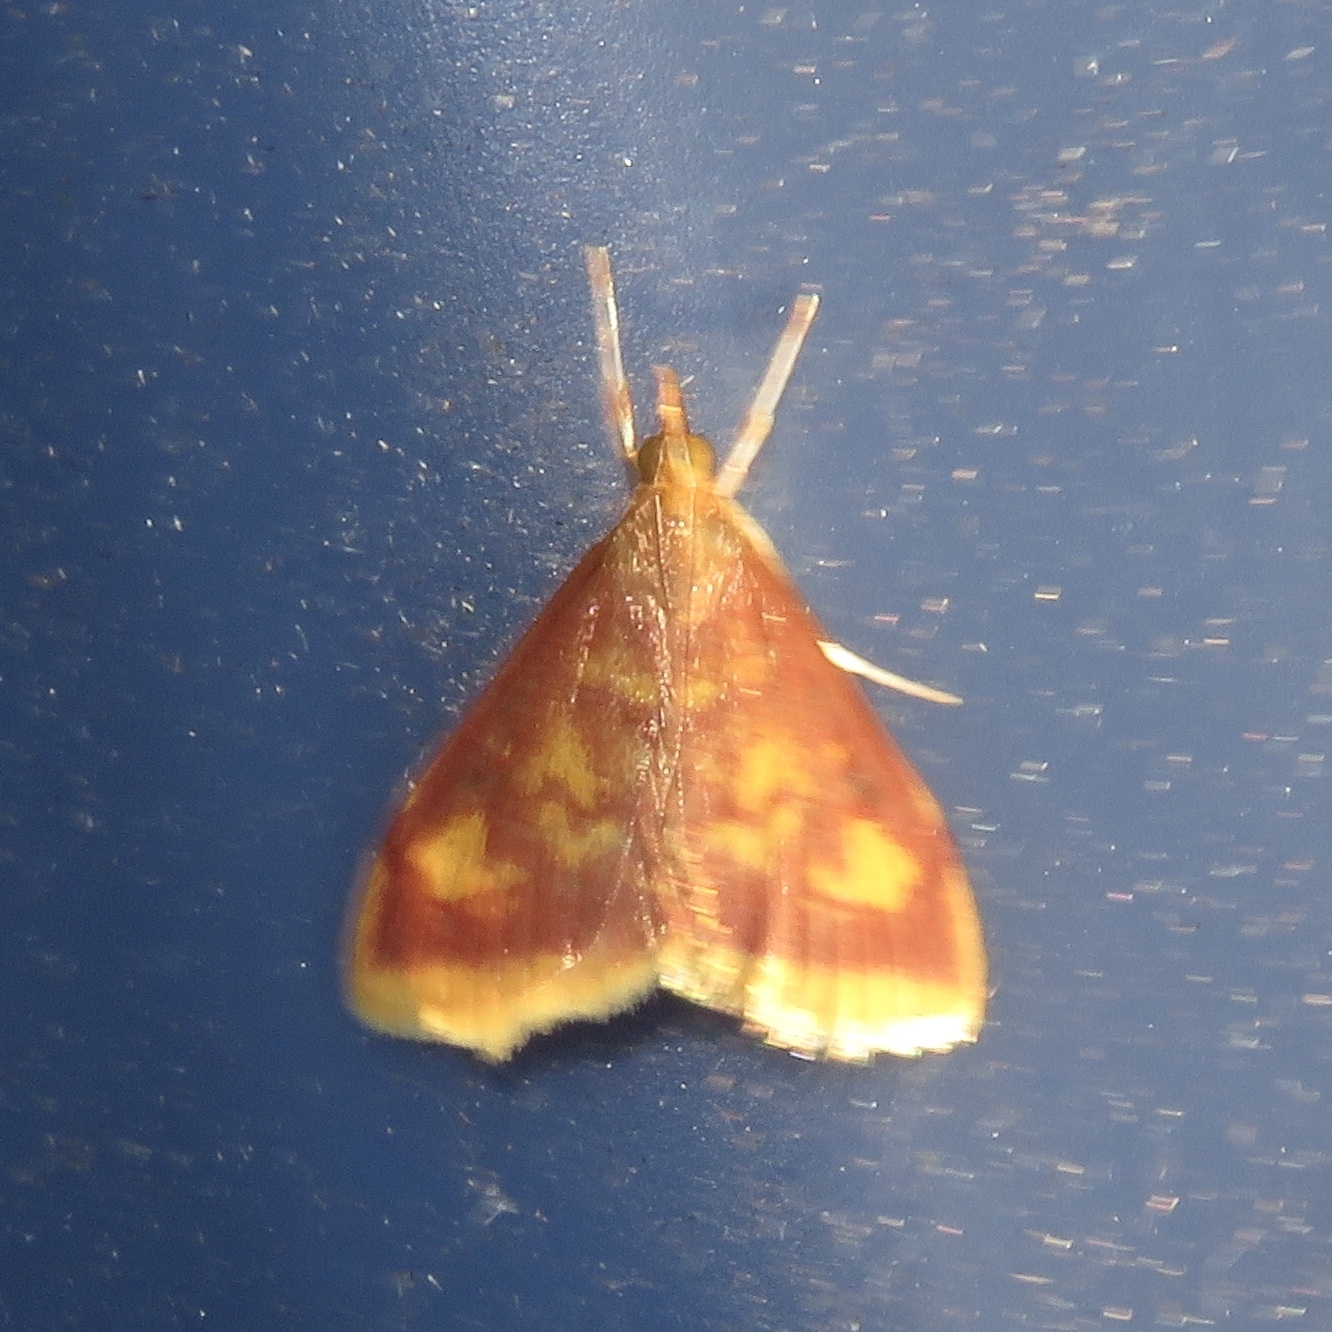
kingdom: Animalia
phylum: Arthropoda
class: Insecta
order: Lepidoptera
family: Crambidae
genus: Pyrausta
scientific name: Pyrausta acrionalis
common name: Mint-loving pyrausta moth
